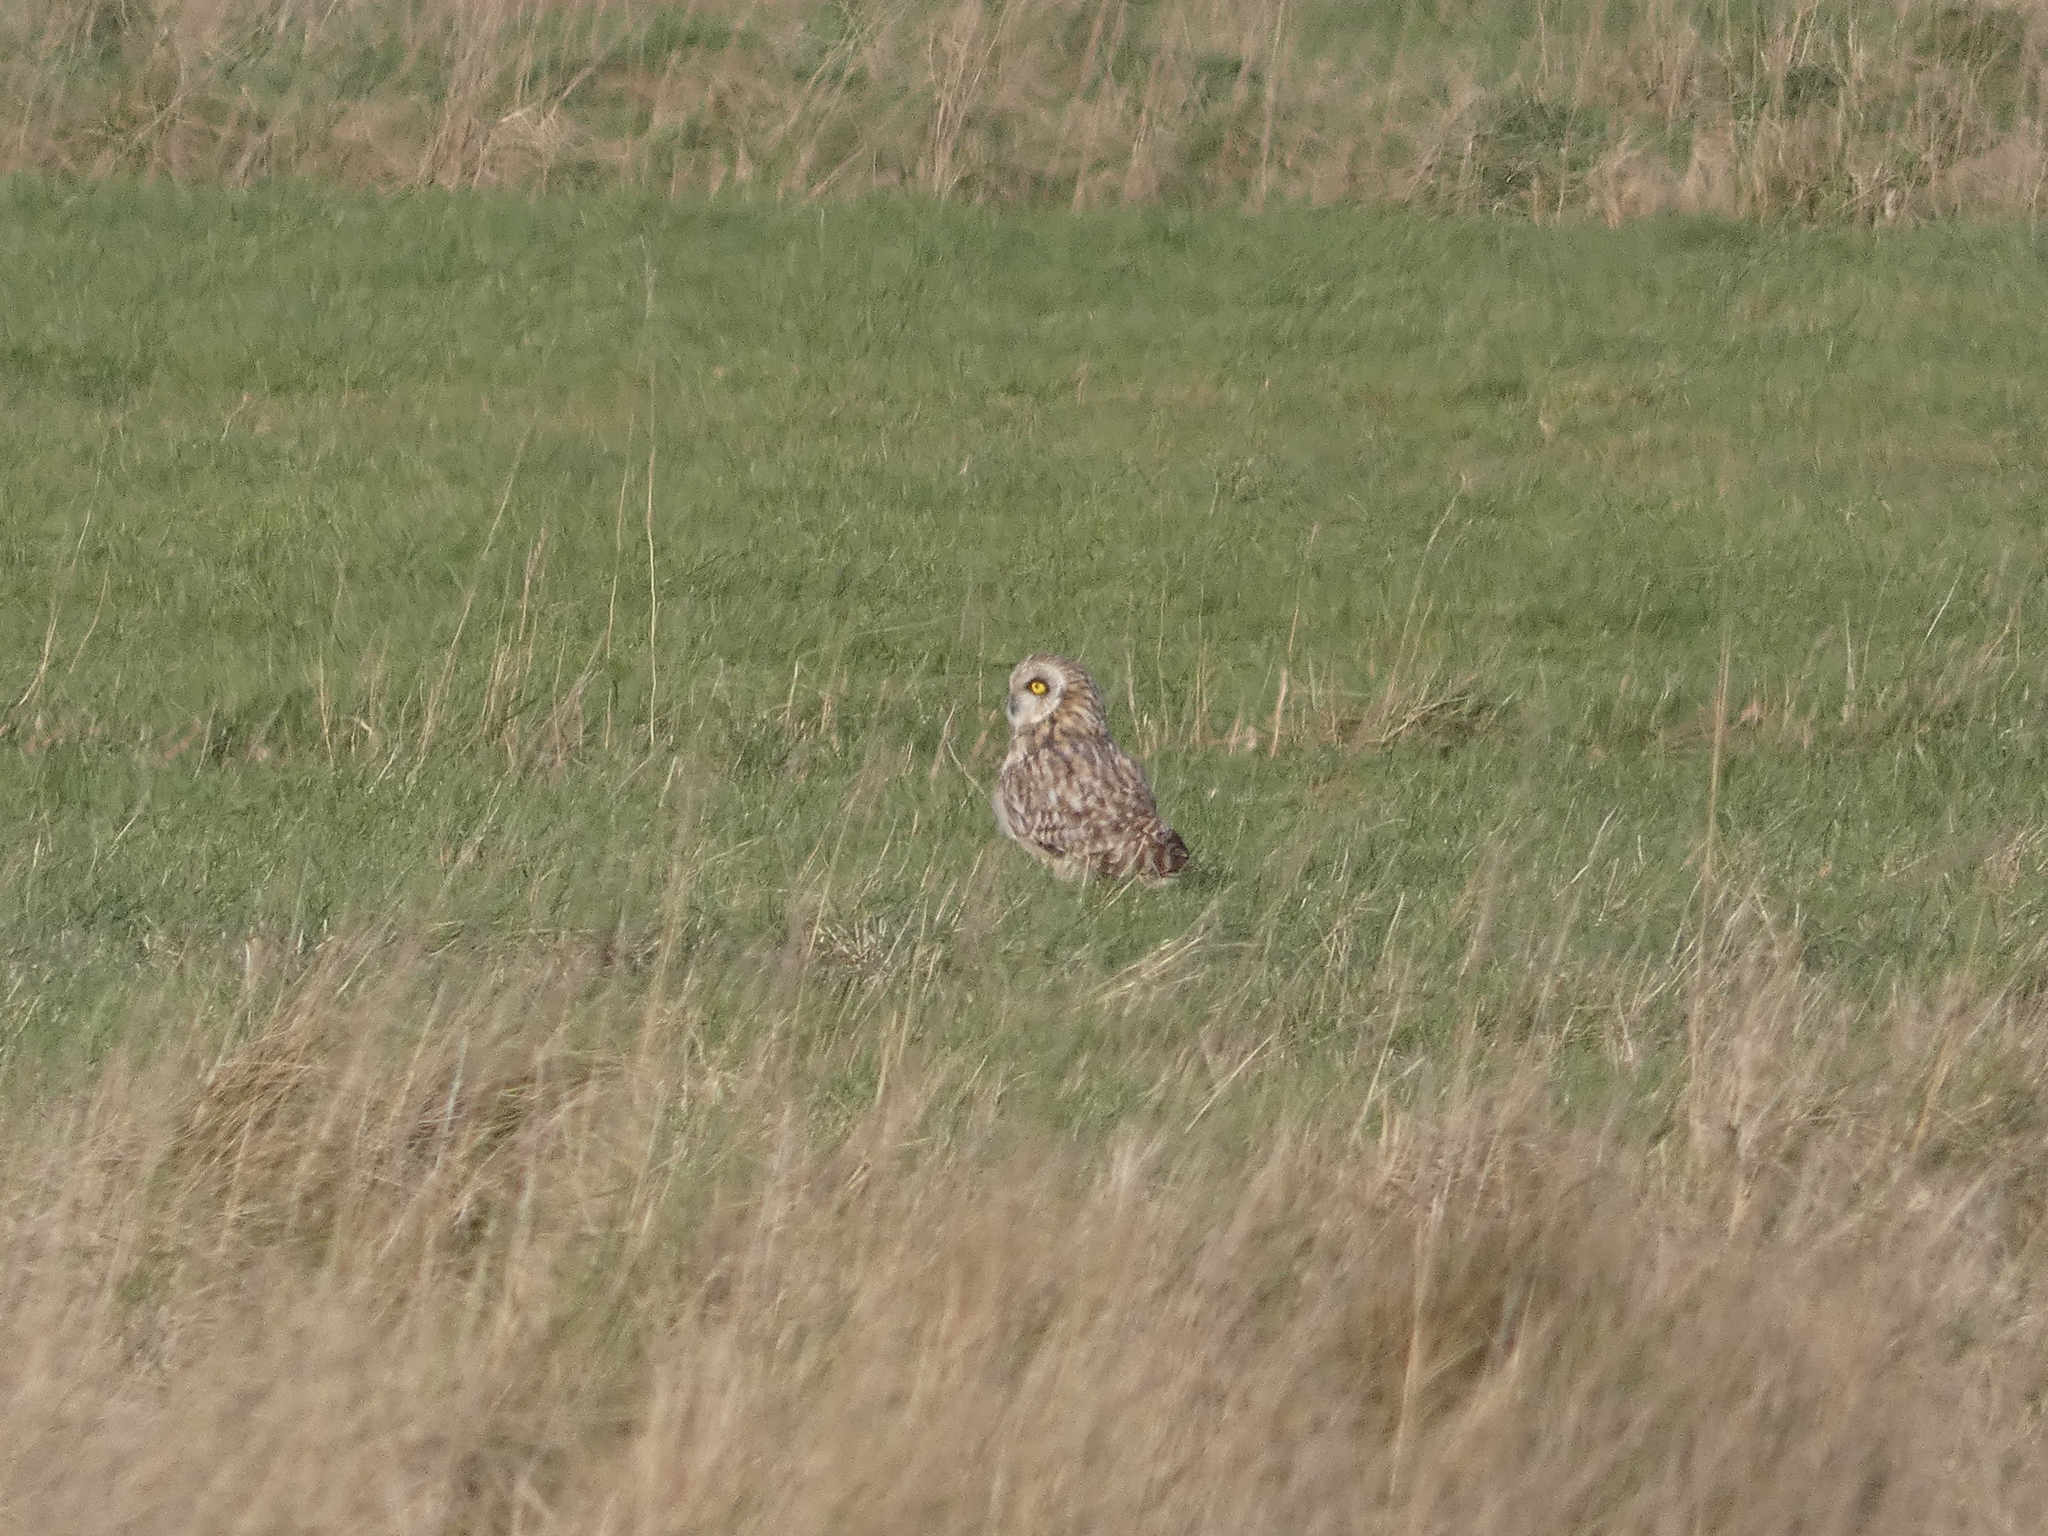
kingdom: Animalia
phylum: Chordata
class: Aves
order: Strigiformes
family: Strigidae
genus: Asio
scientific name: Asio flammeus
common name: Short-eared owl
